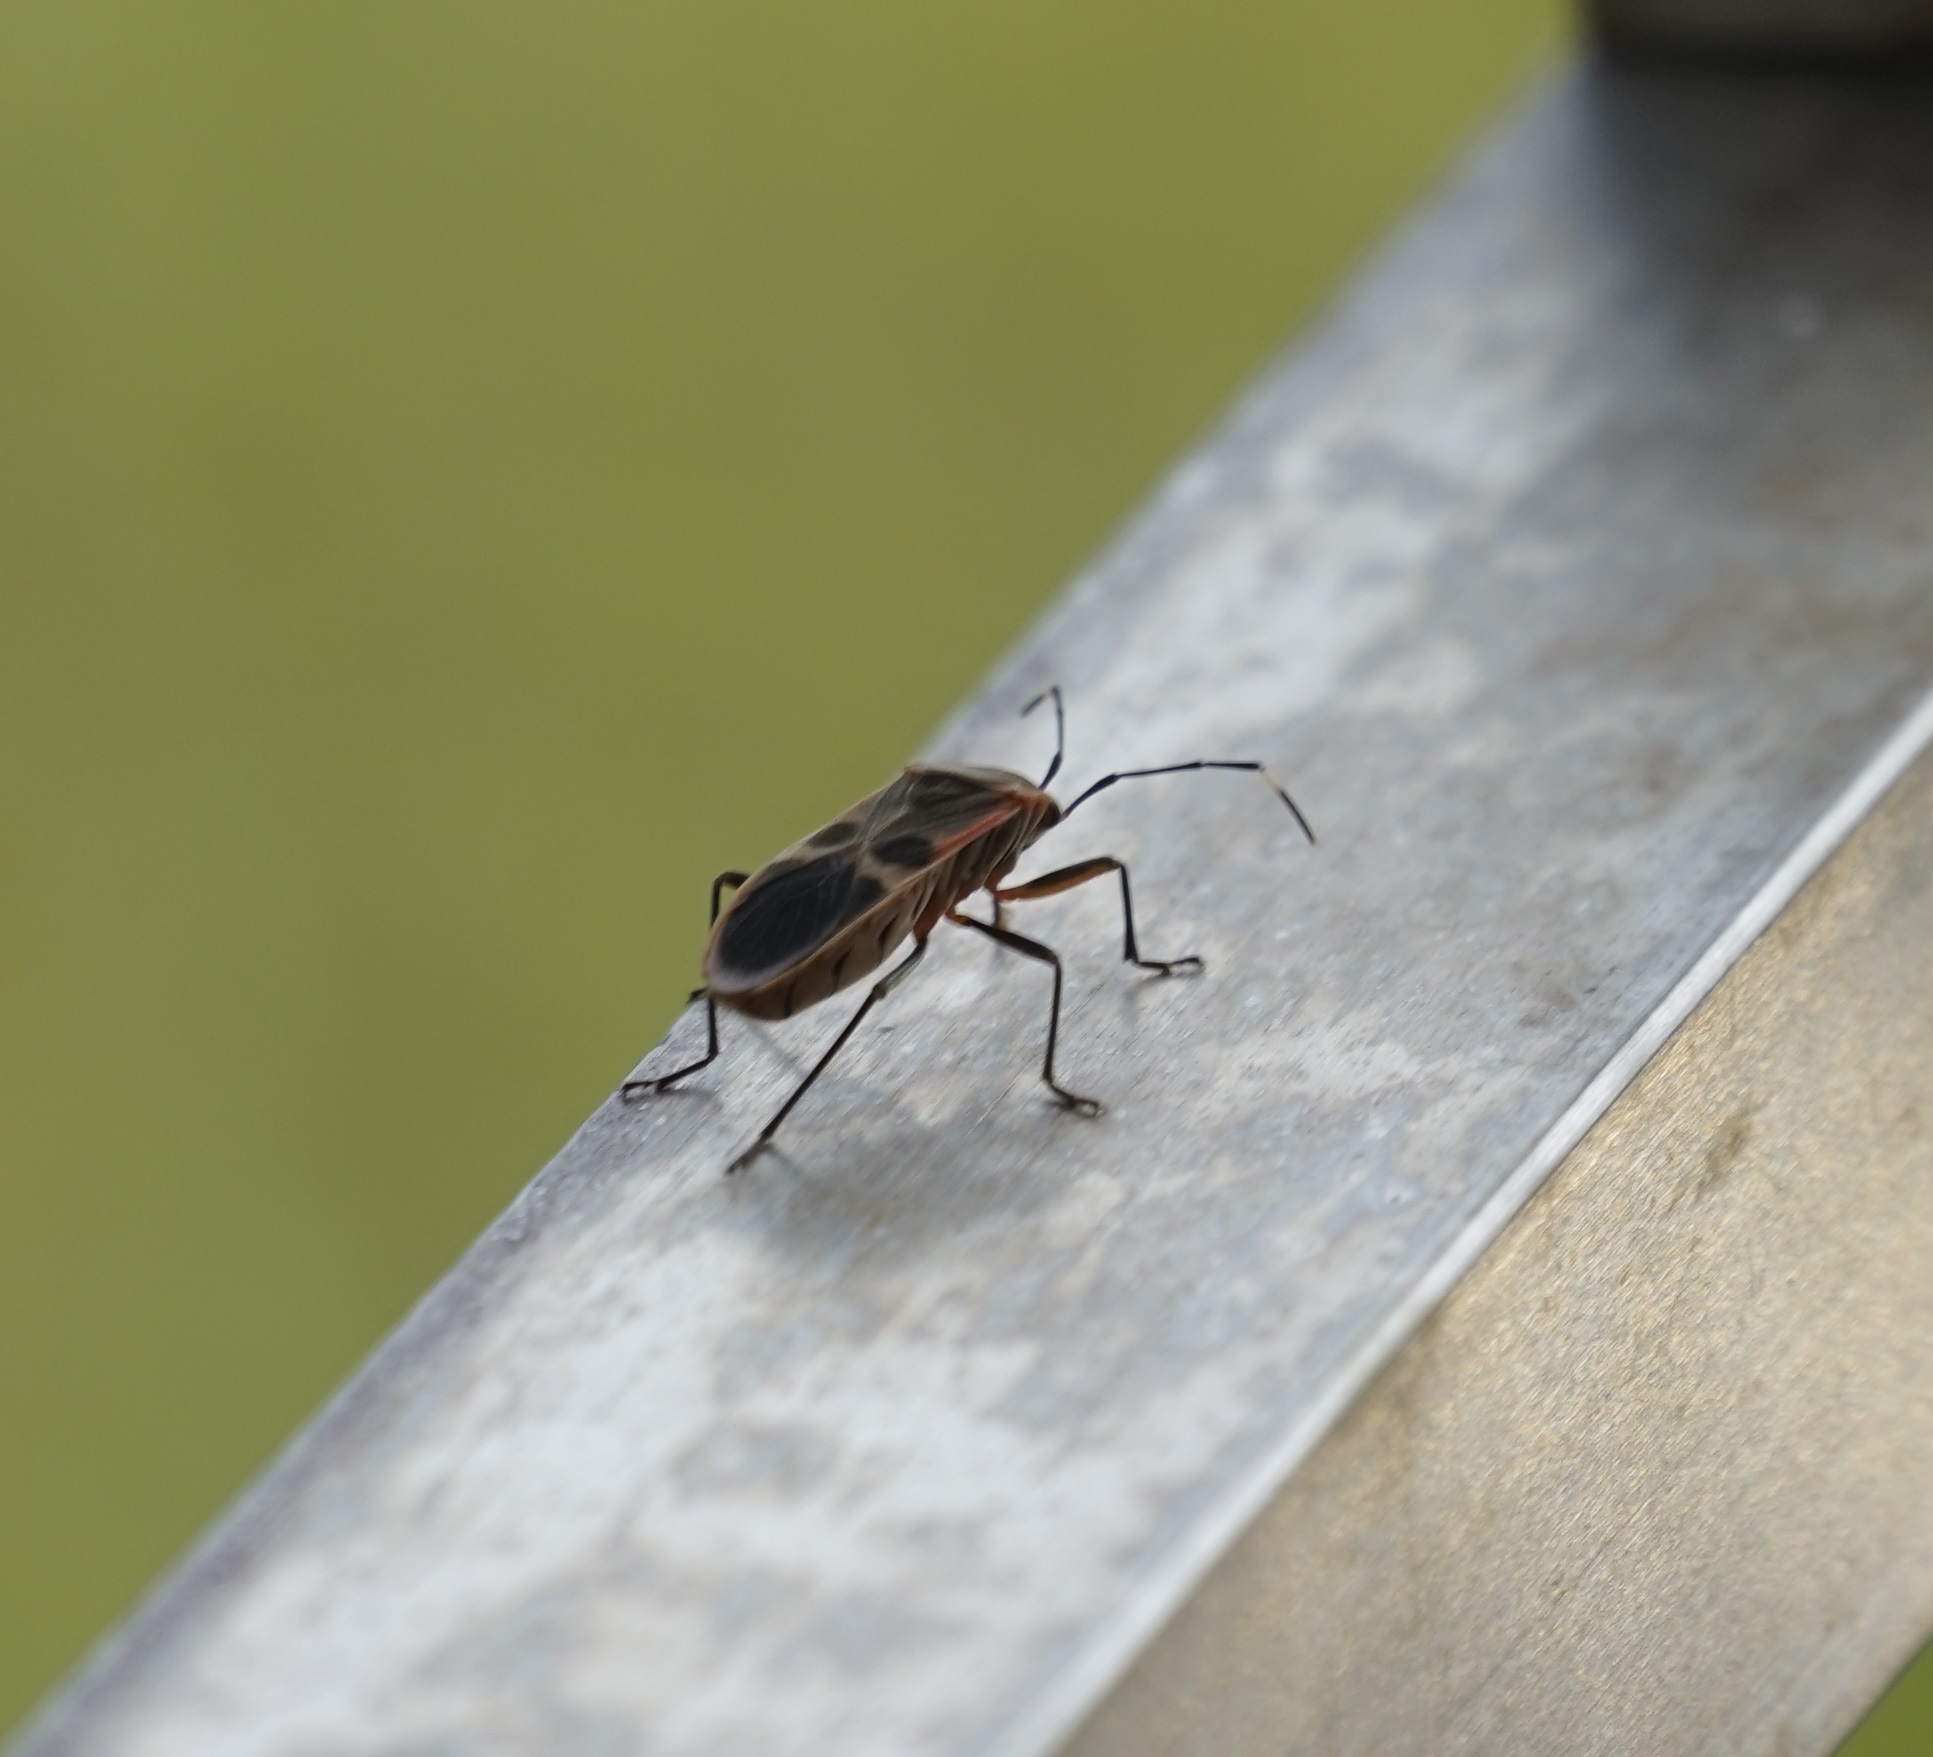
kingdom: Animalia
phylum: Arthropoda
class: Insecta
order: Hemiptera
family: Largidae
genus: Physopelta
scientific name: Physopelta gutta
